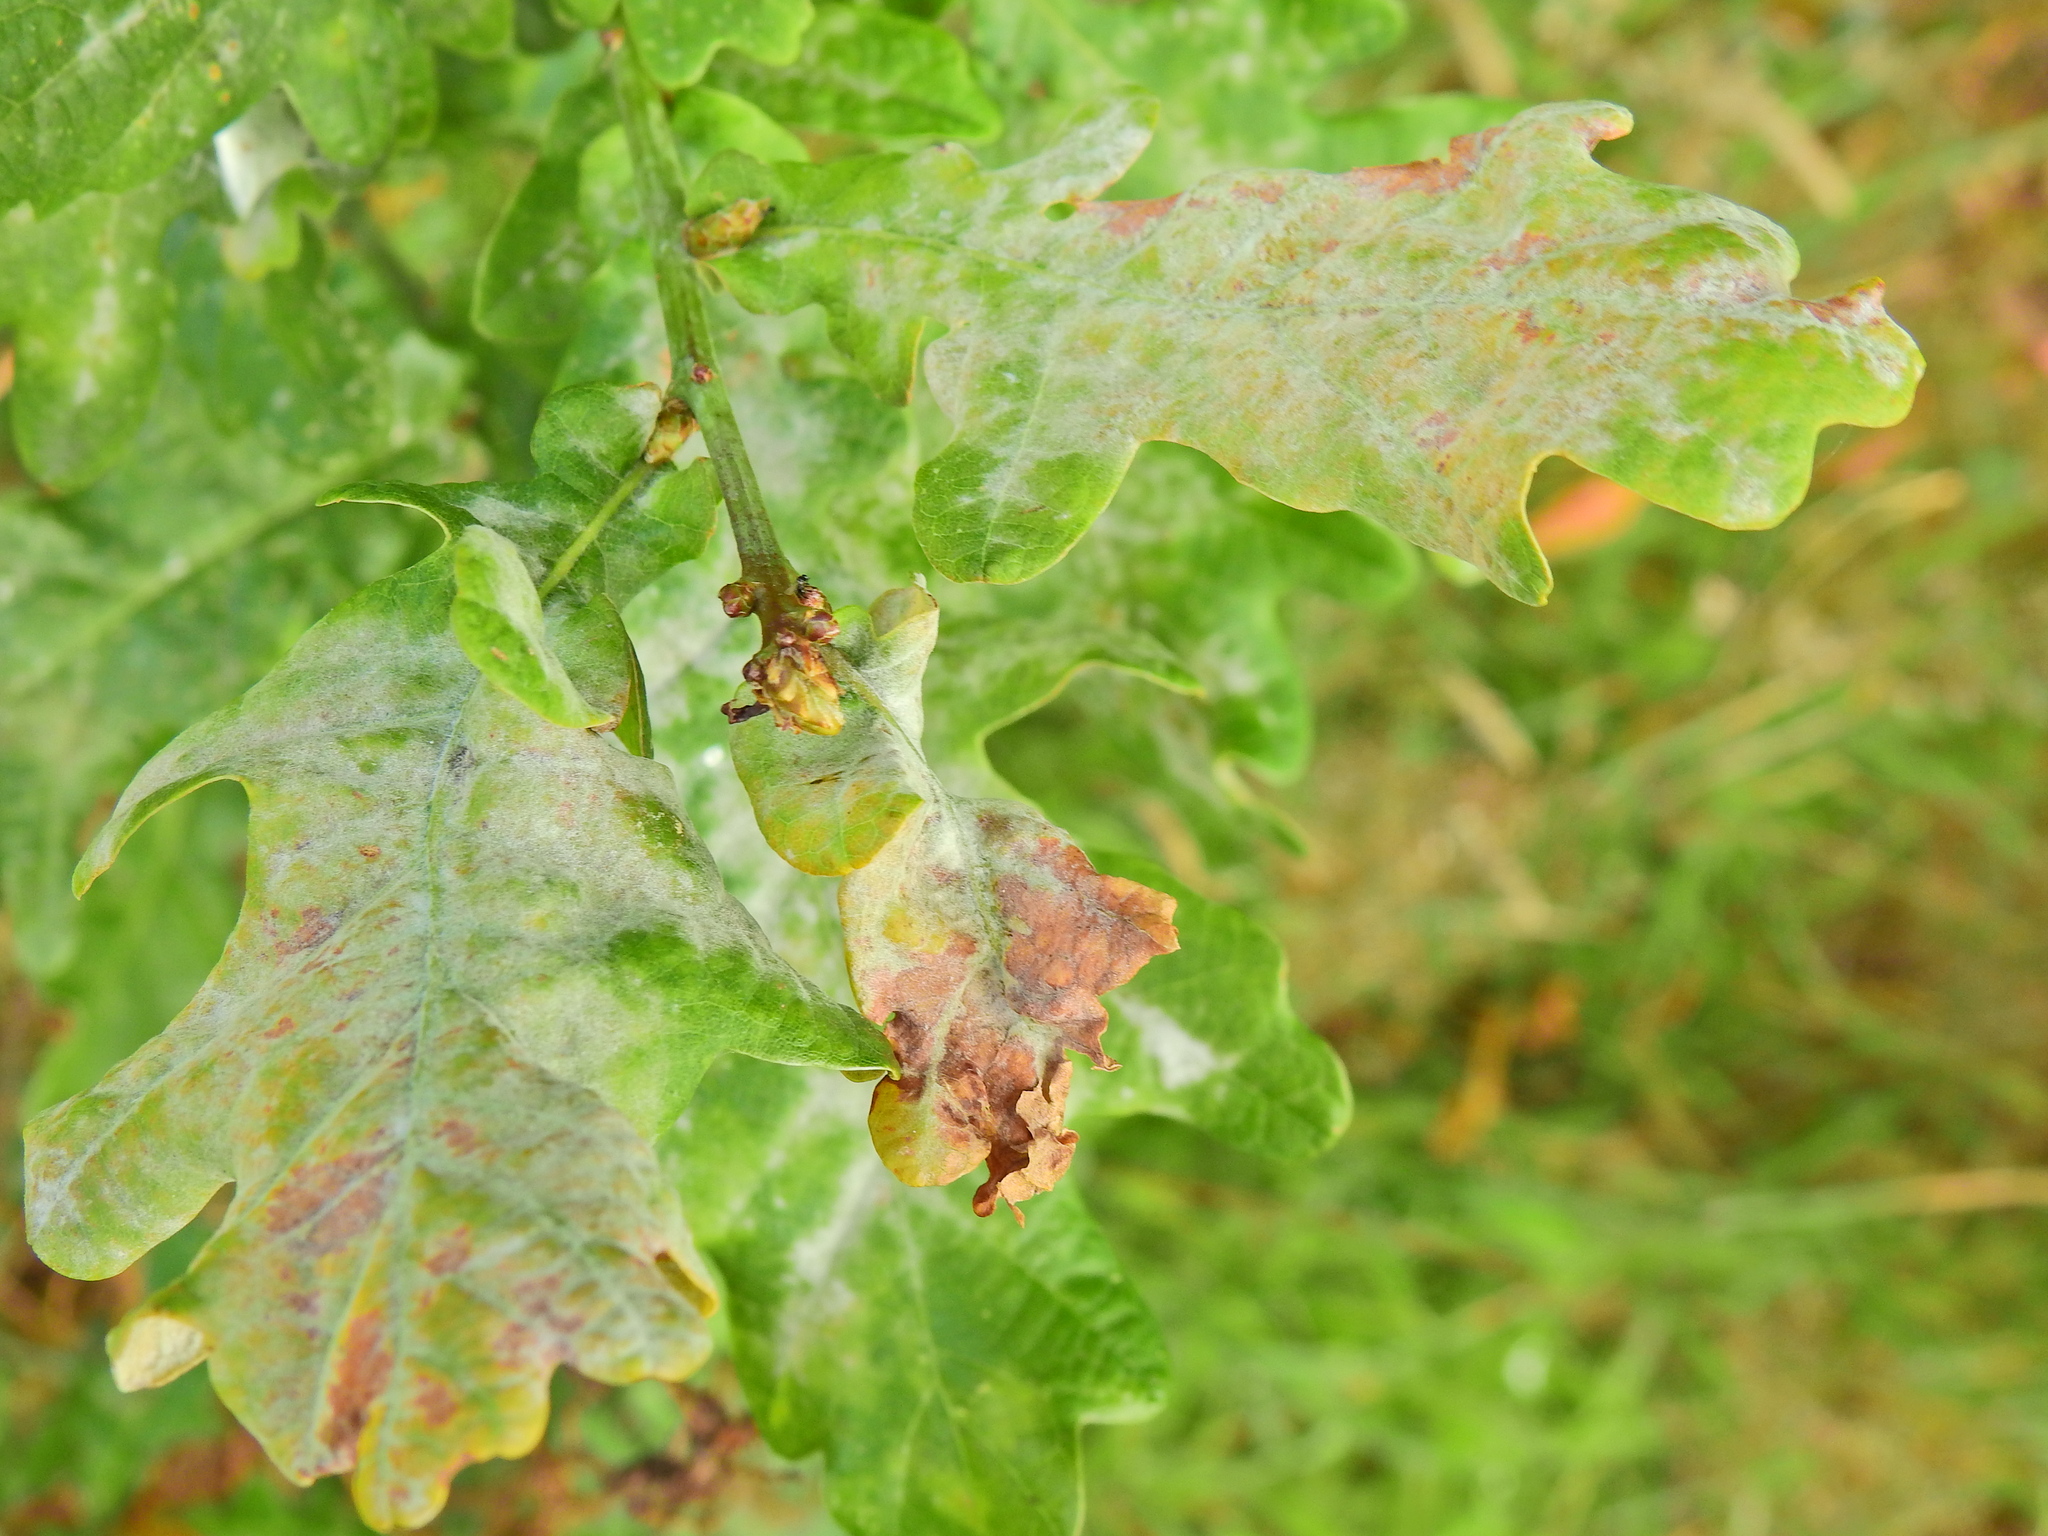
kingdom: Fungi
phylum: Ascomycota
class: Leotiomycetes
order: Helotiales
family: Erysiphaceae
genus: Erysiphe
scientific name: Erysiphe alphitoides
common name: Oak mildew
